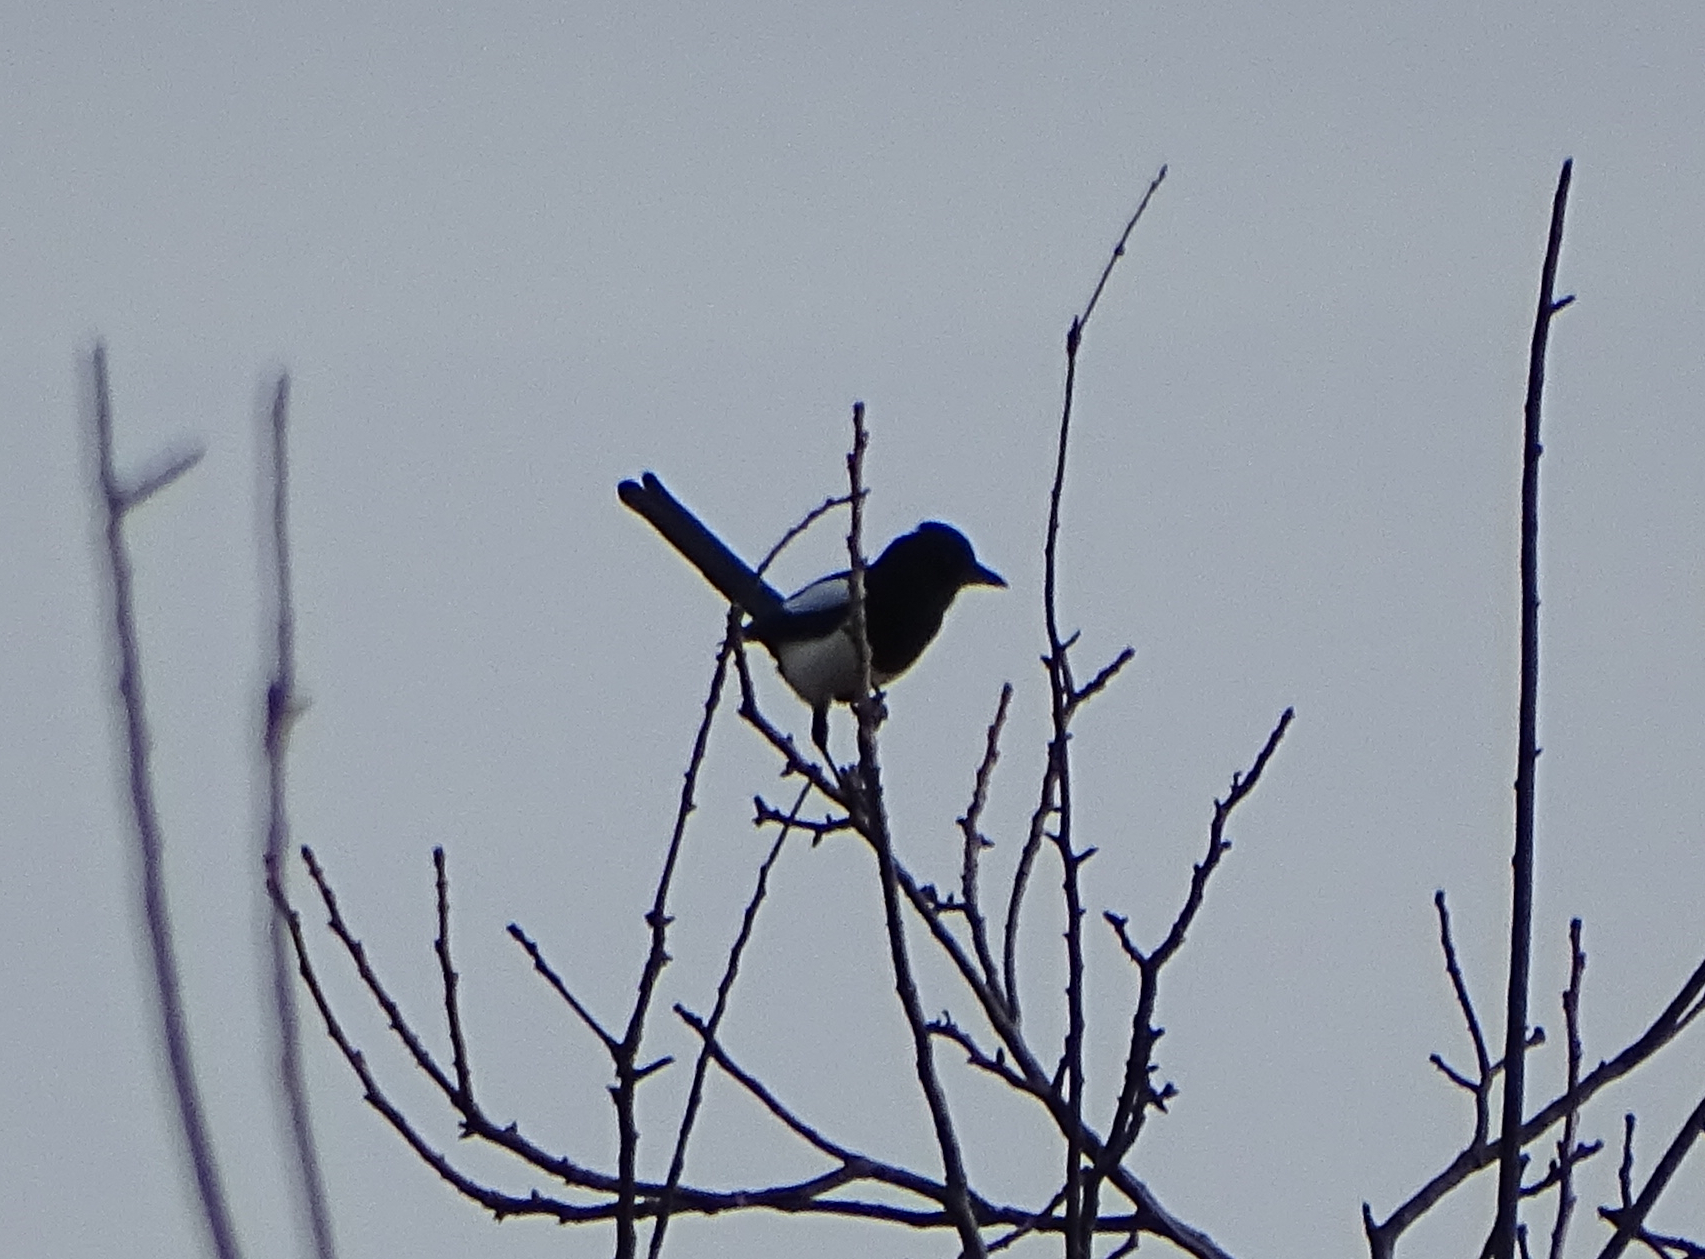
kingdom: Animalia
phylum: Chordata
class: Aves
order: Passeriformes
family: Corvidae
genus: Pica
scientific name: Pica pica
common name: Eurasian magpie
